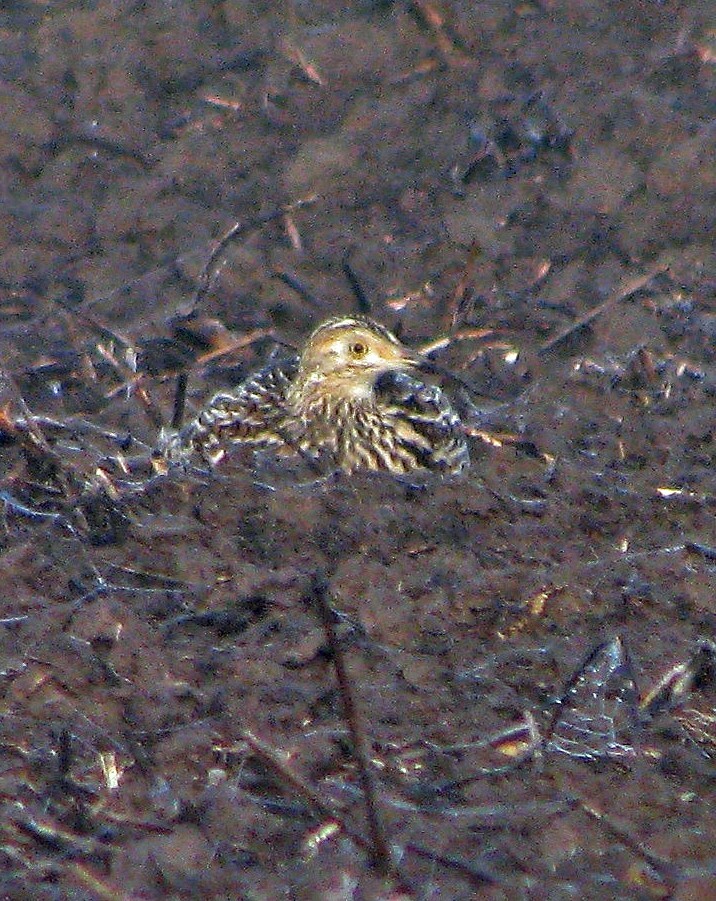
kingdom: Animalia
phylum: Chordata
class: Aves
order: Tinamiformes
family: Tinamidae
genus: Nothura
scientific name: Nothura maculosa
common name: Spotted nothura
